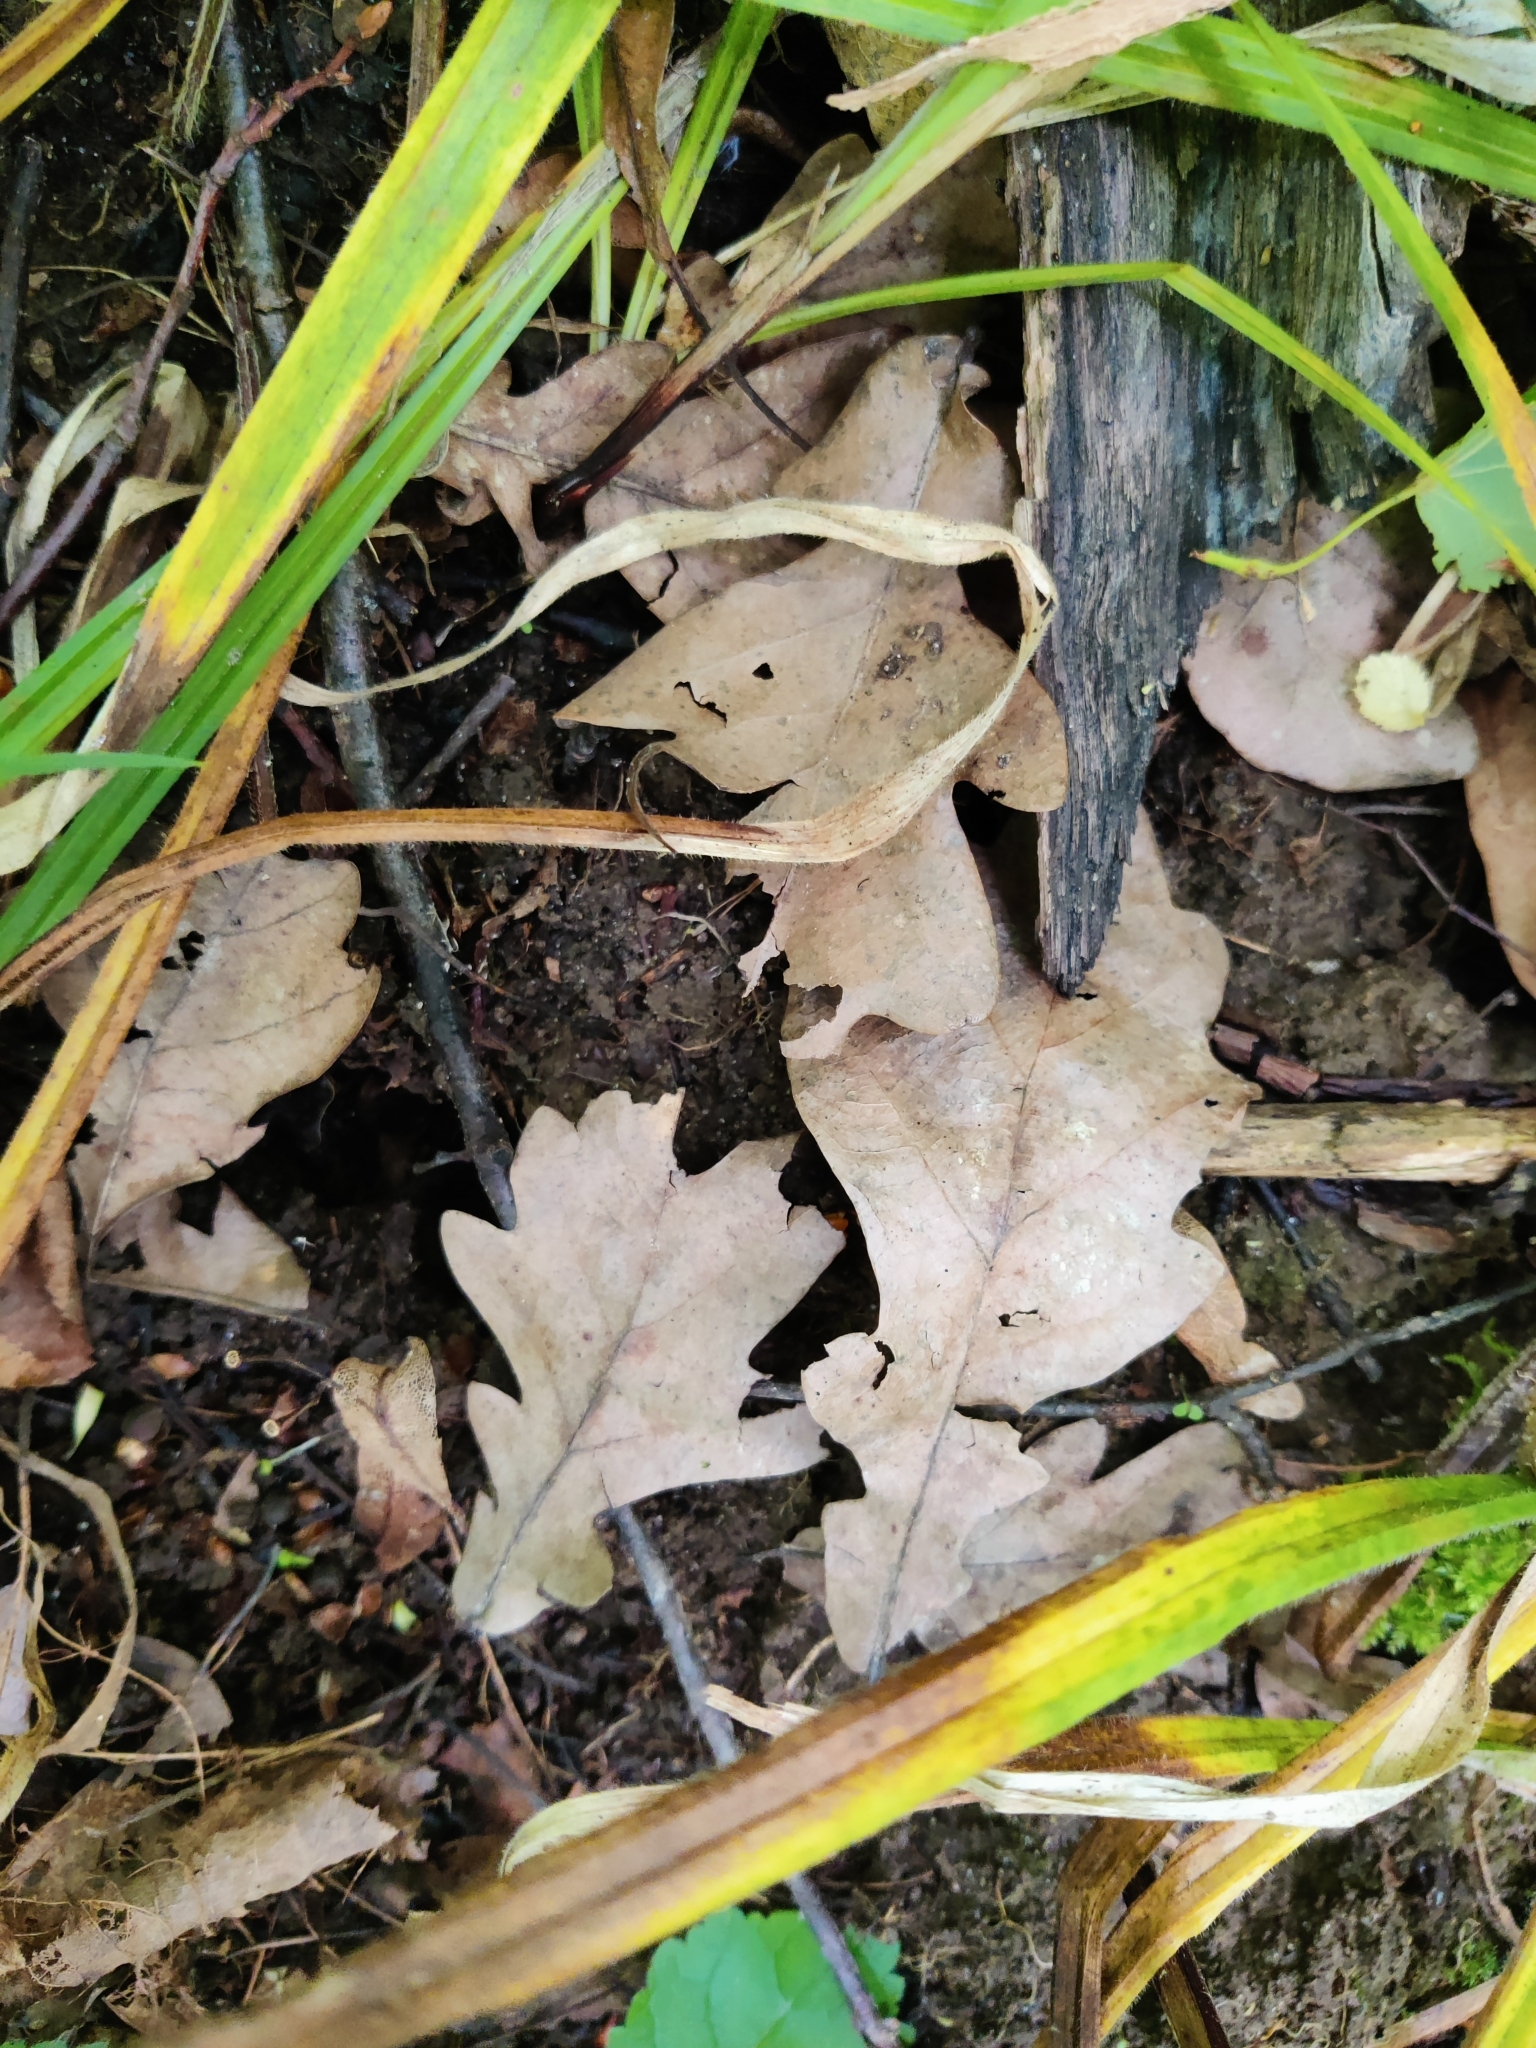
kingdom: Plantae
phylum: Tracheophyta
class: Magnoliopsida
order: Fagales
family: Fagaceae
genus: Quercus
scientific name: Quercus robur
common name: Pedunculate oak
